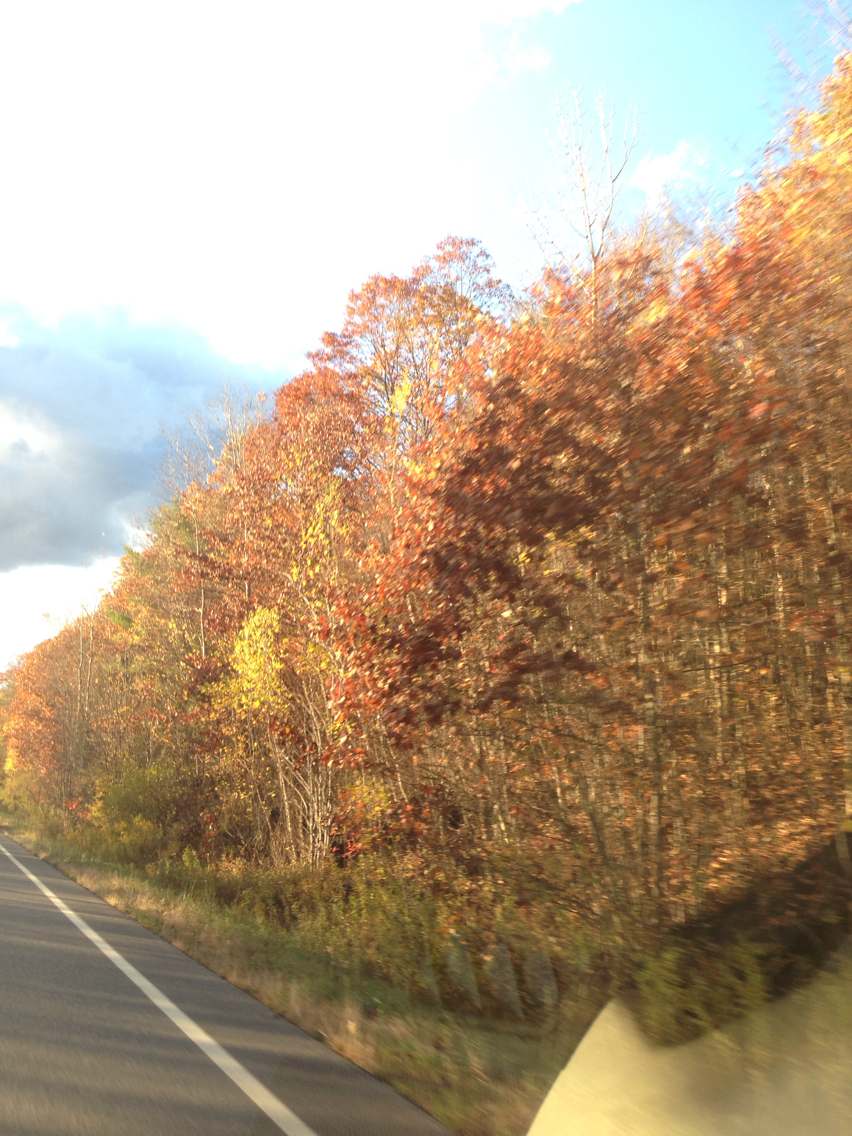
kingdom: Plantae
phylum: Tracheophyta
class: Magnoliopsida
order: Fagales
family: Fagaceae
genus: Quercus
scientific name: Quercus rubra
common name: Red oak
